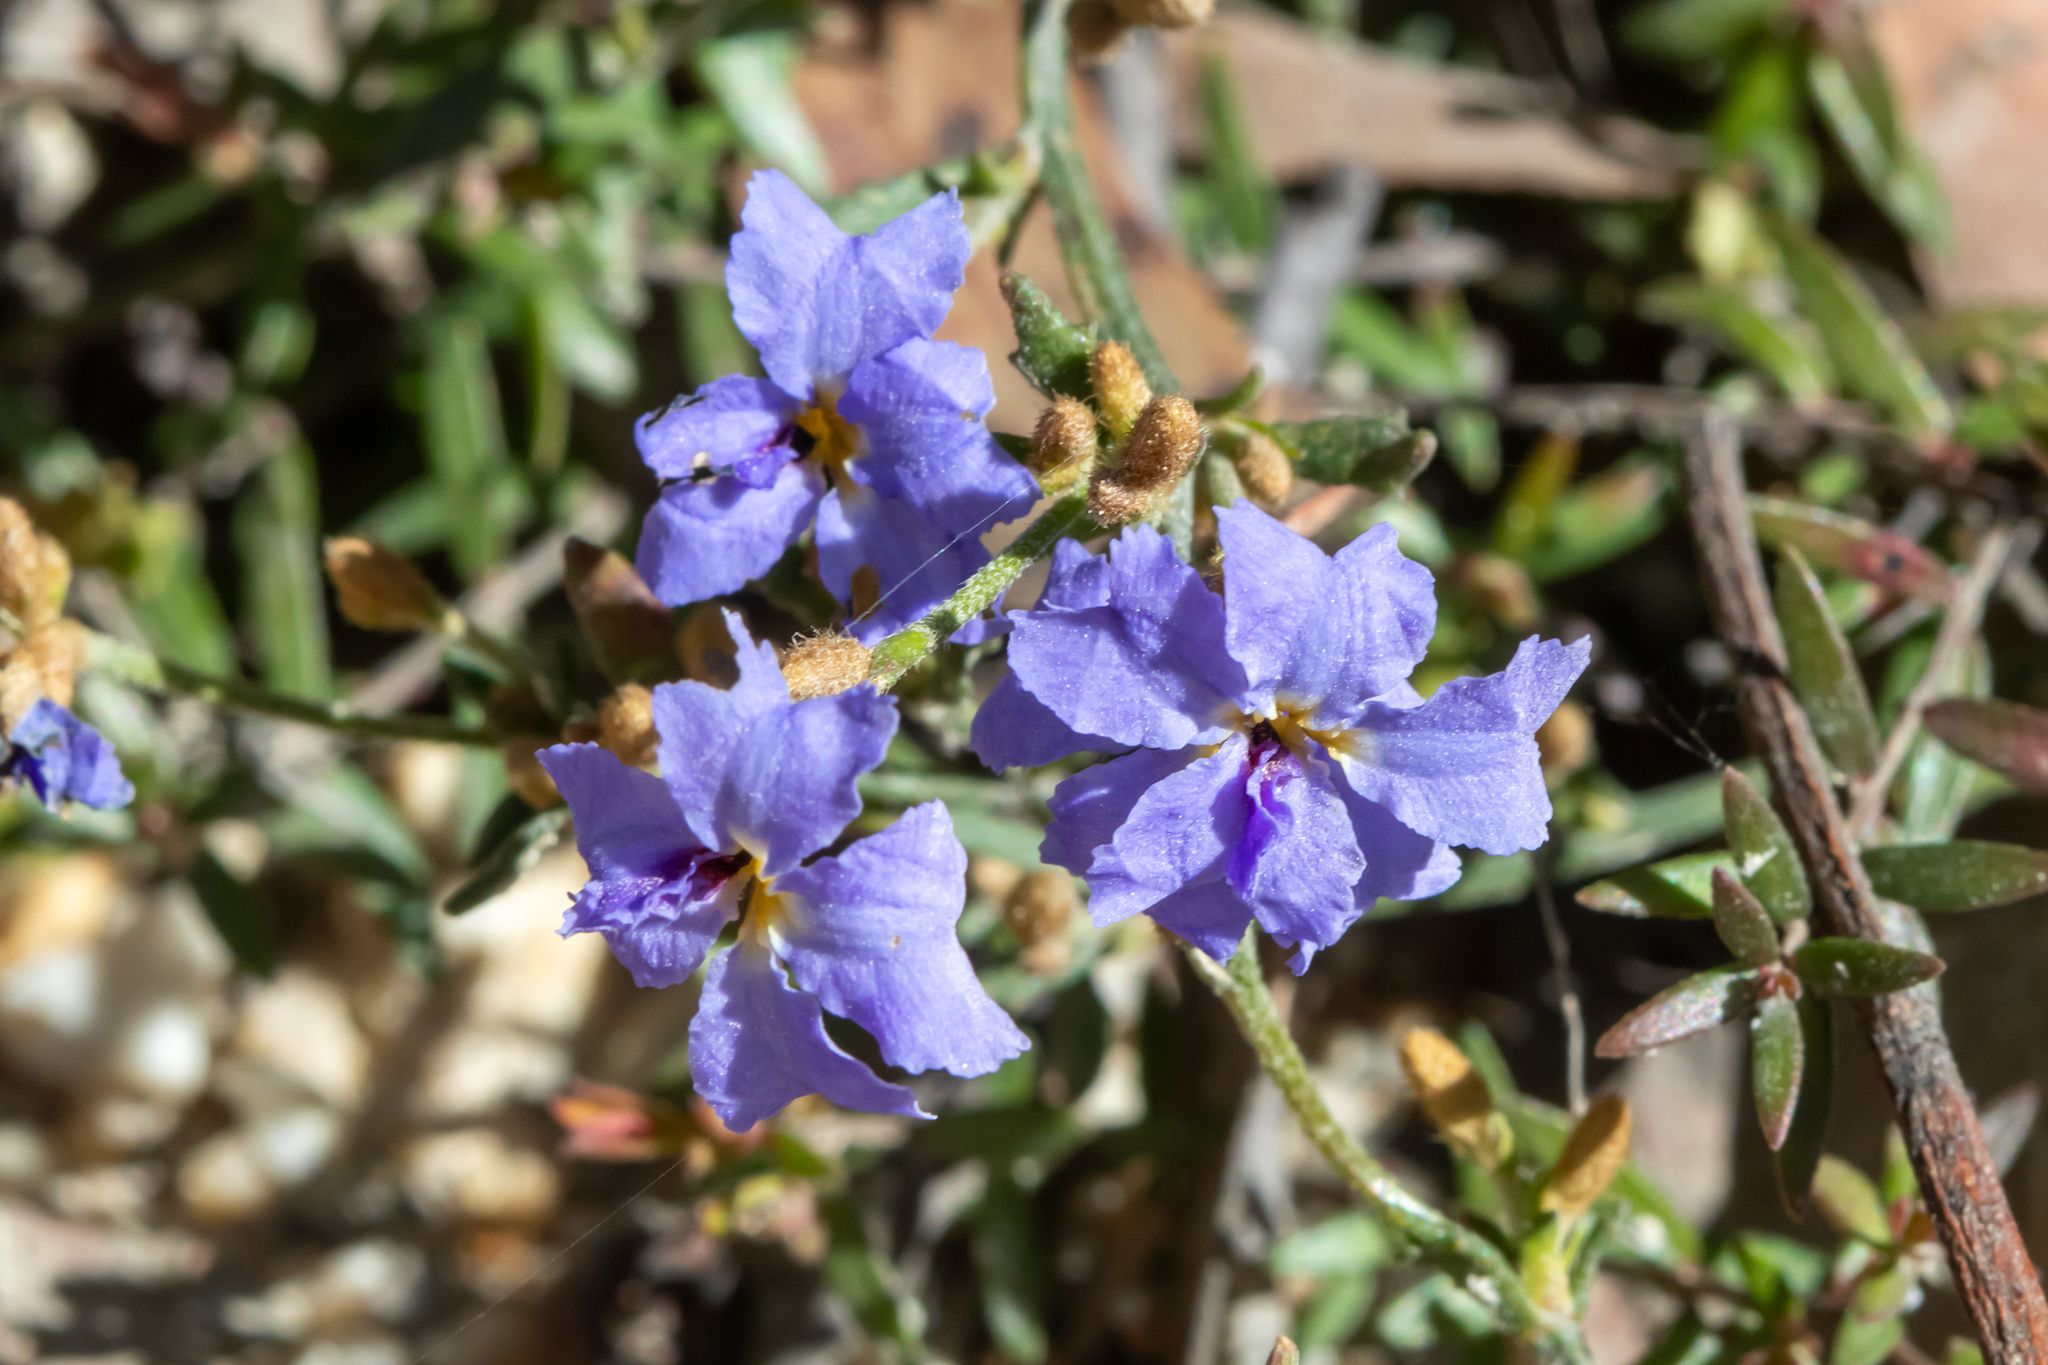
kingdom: Plantae
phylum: Tracheophyta
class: Magnoliopsida
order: Asterales
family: Goodeniaceae
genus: Dampiera
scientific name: Dampiera stricta
